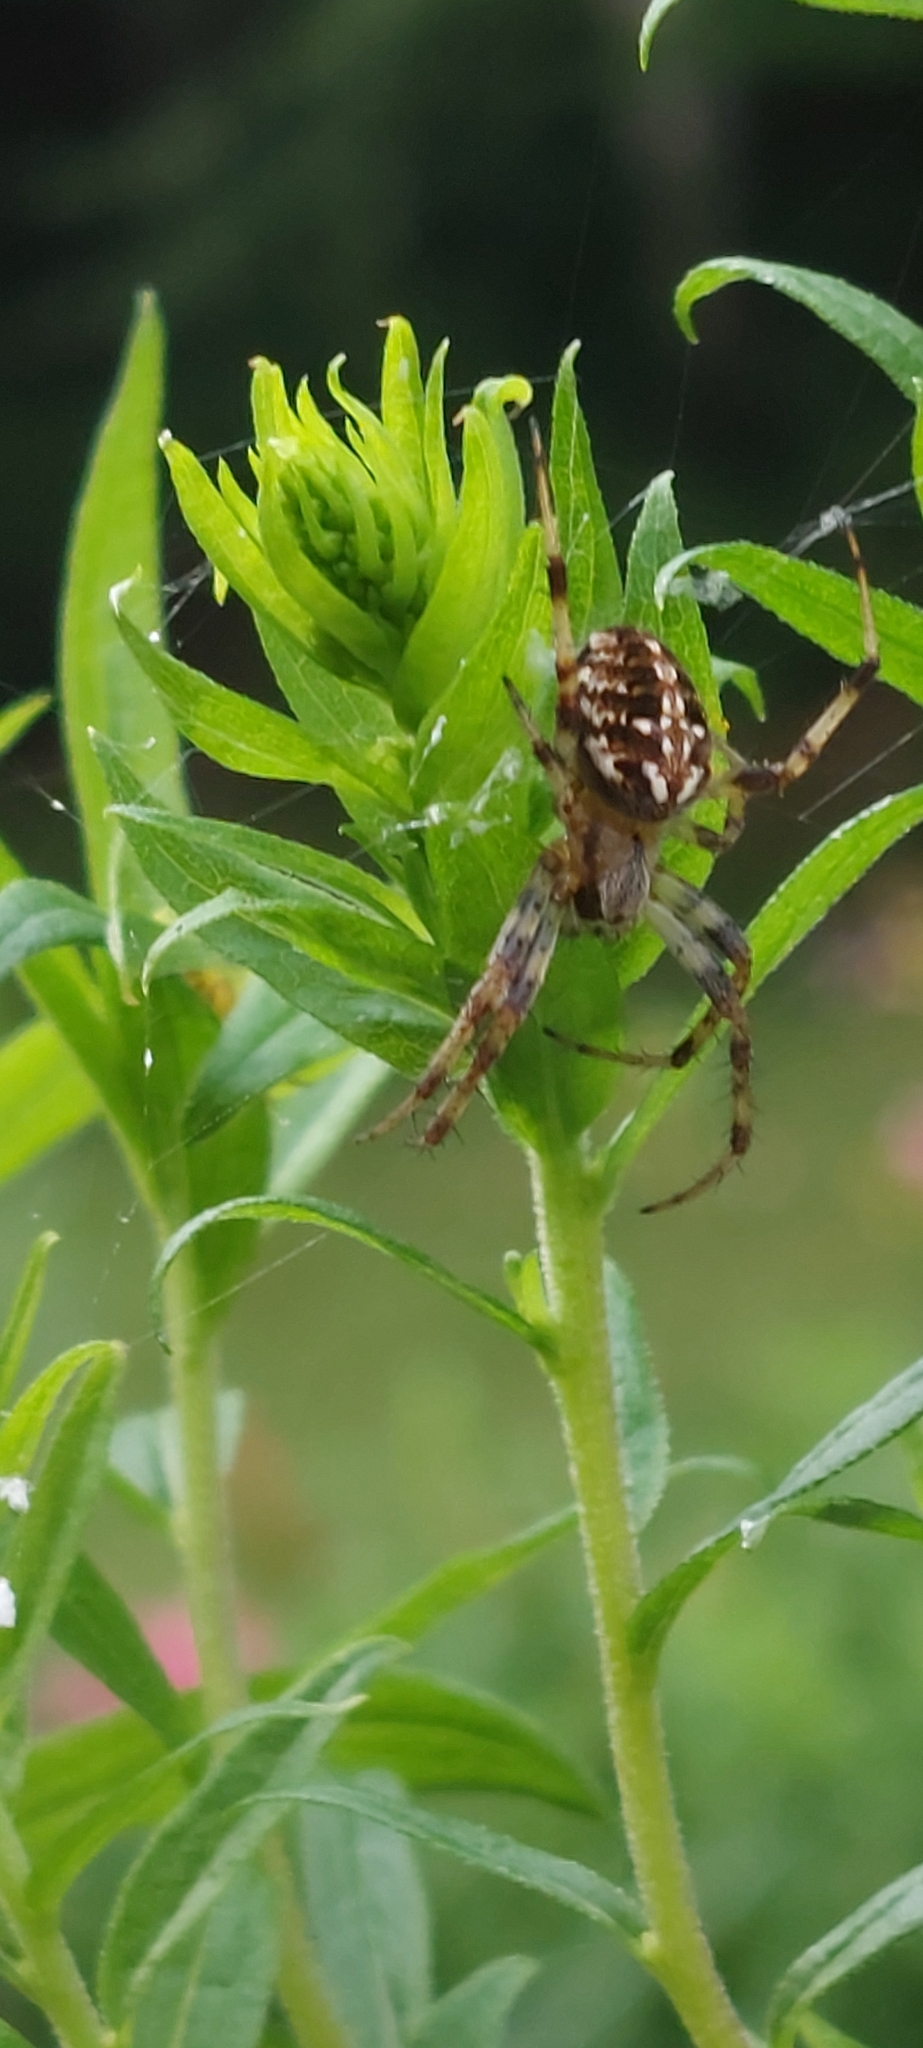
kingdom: Animalia
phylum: Arthropoda
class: Arachnida
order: Araneae
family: Araneidae
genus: Neoscona
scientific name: Neoscona arabesca
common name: Orb weavers
